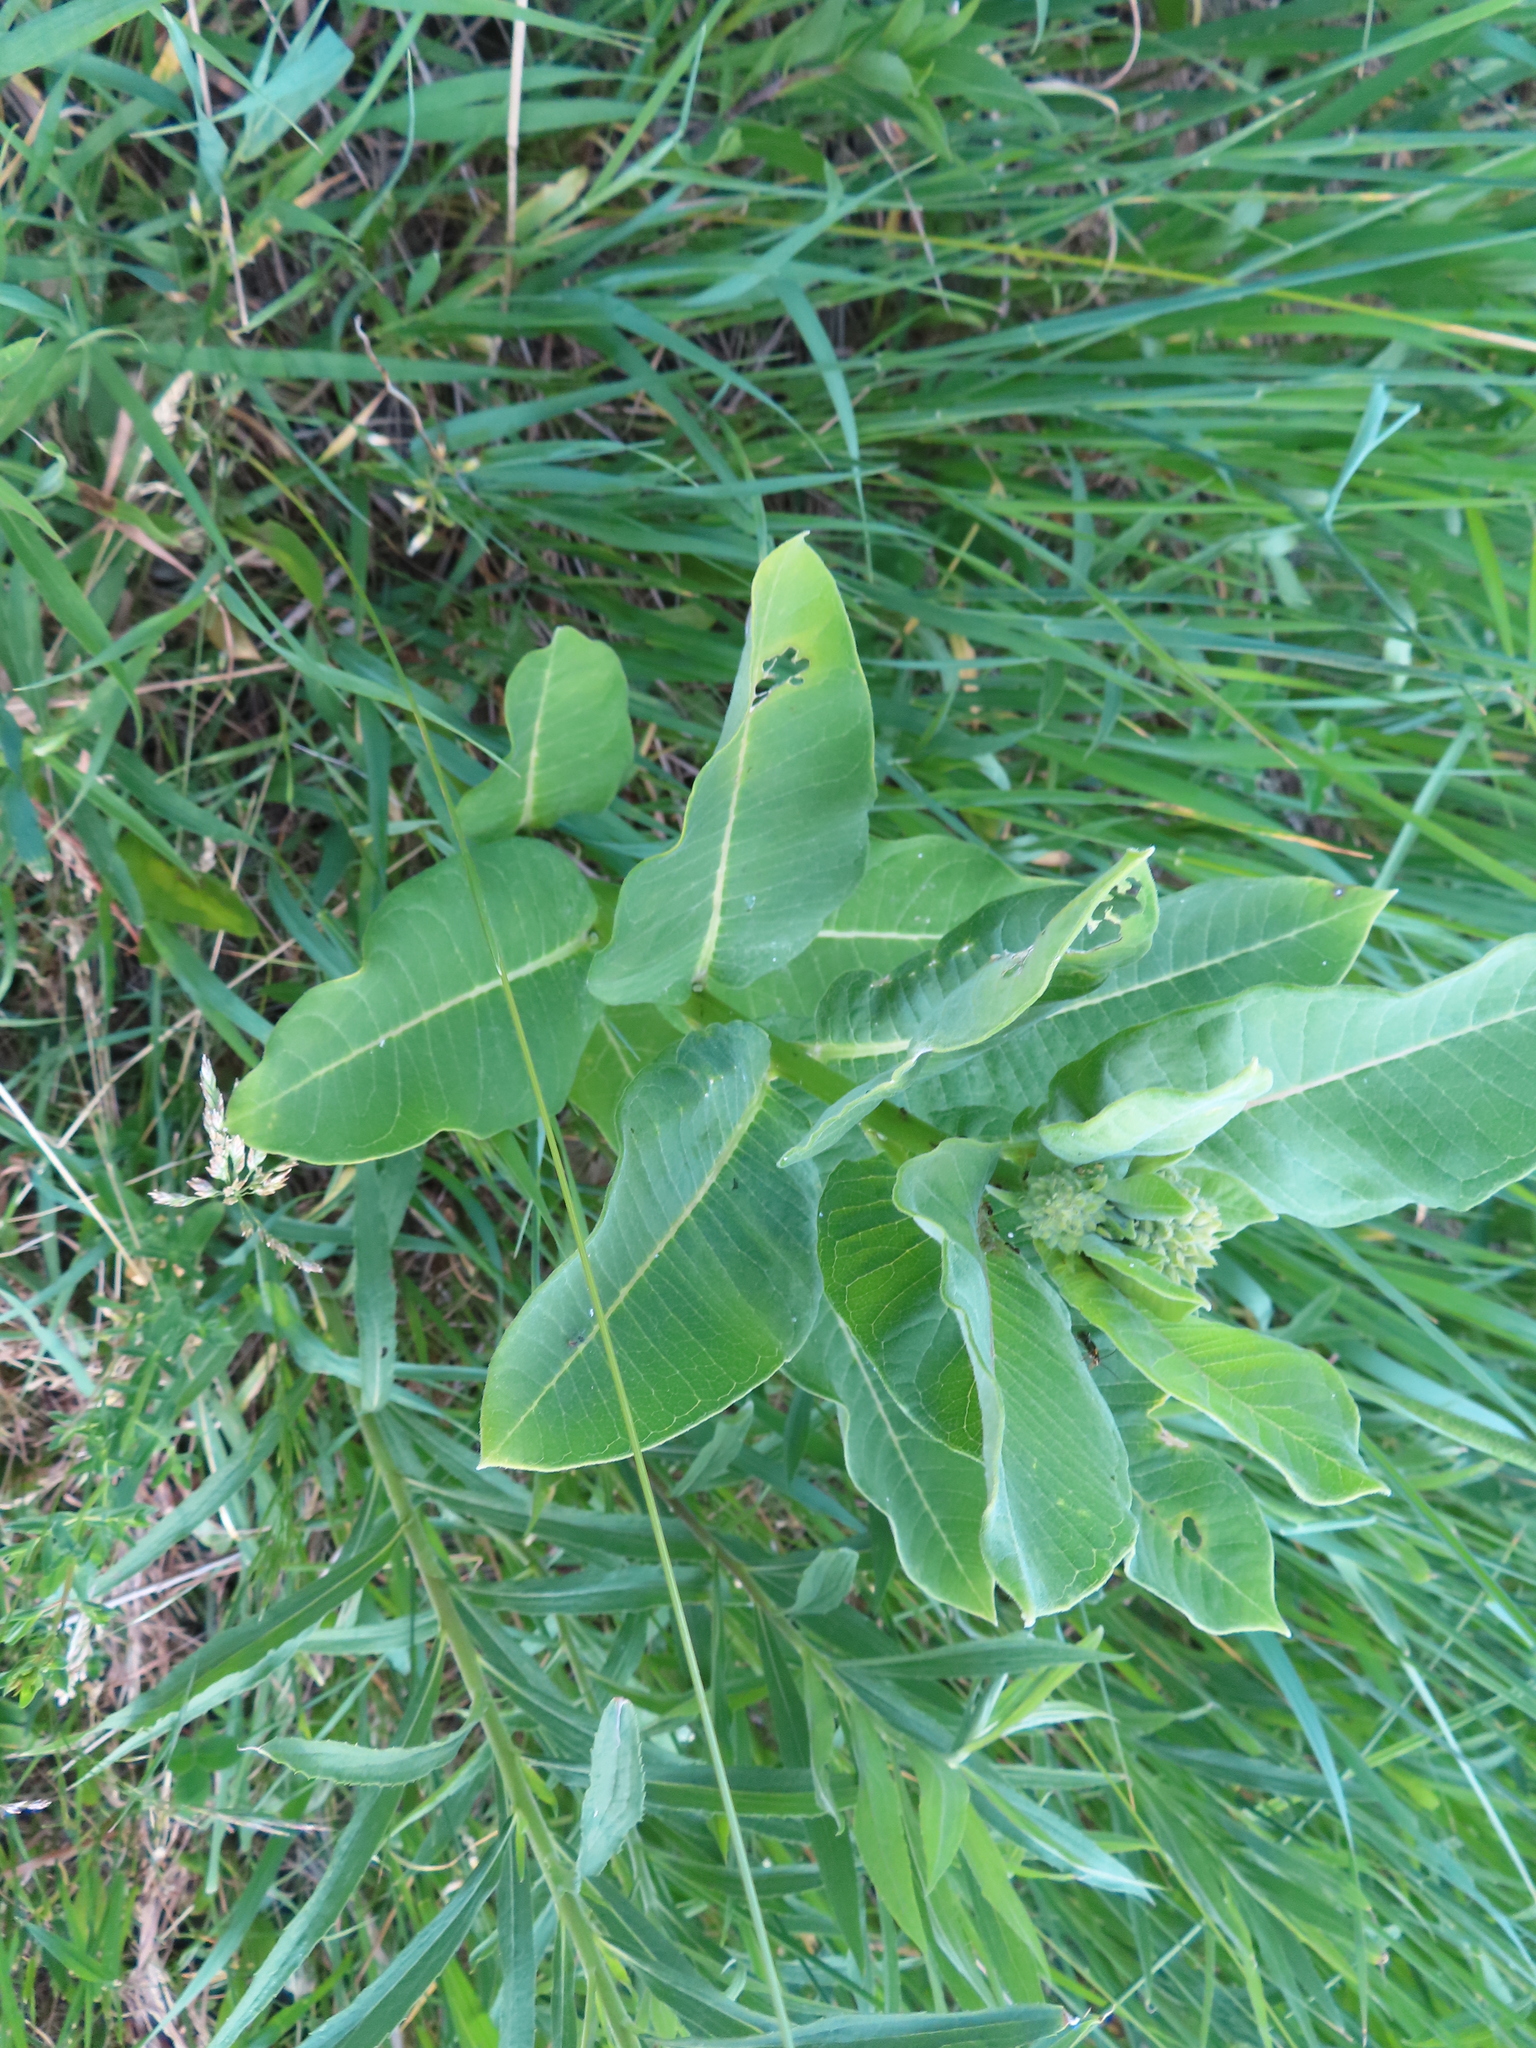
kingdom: Plantae
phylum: Tracheophyta
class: Magnoliopsida
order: Gentianales
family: Apocynaceae
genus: Asclepias
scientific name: Asclepias syriaca
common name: Common milkweed
